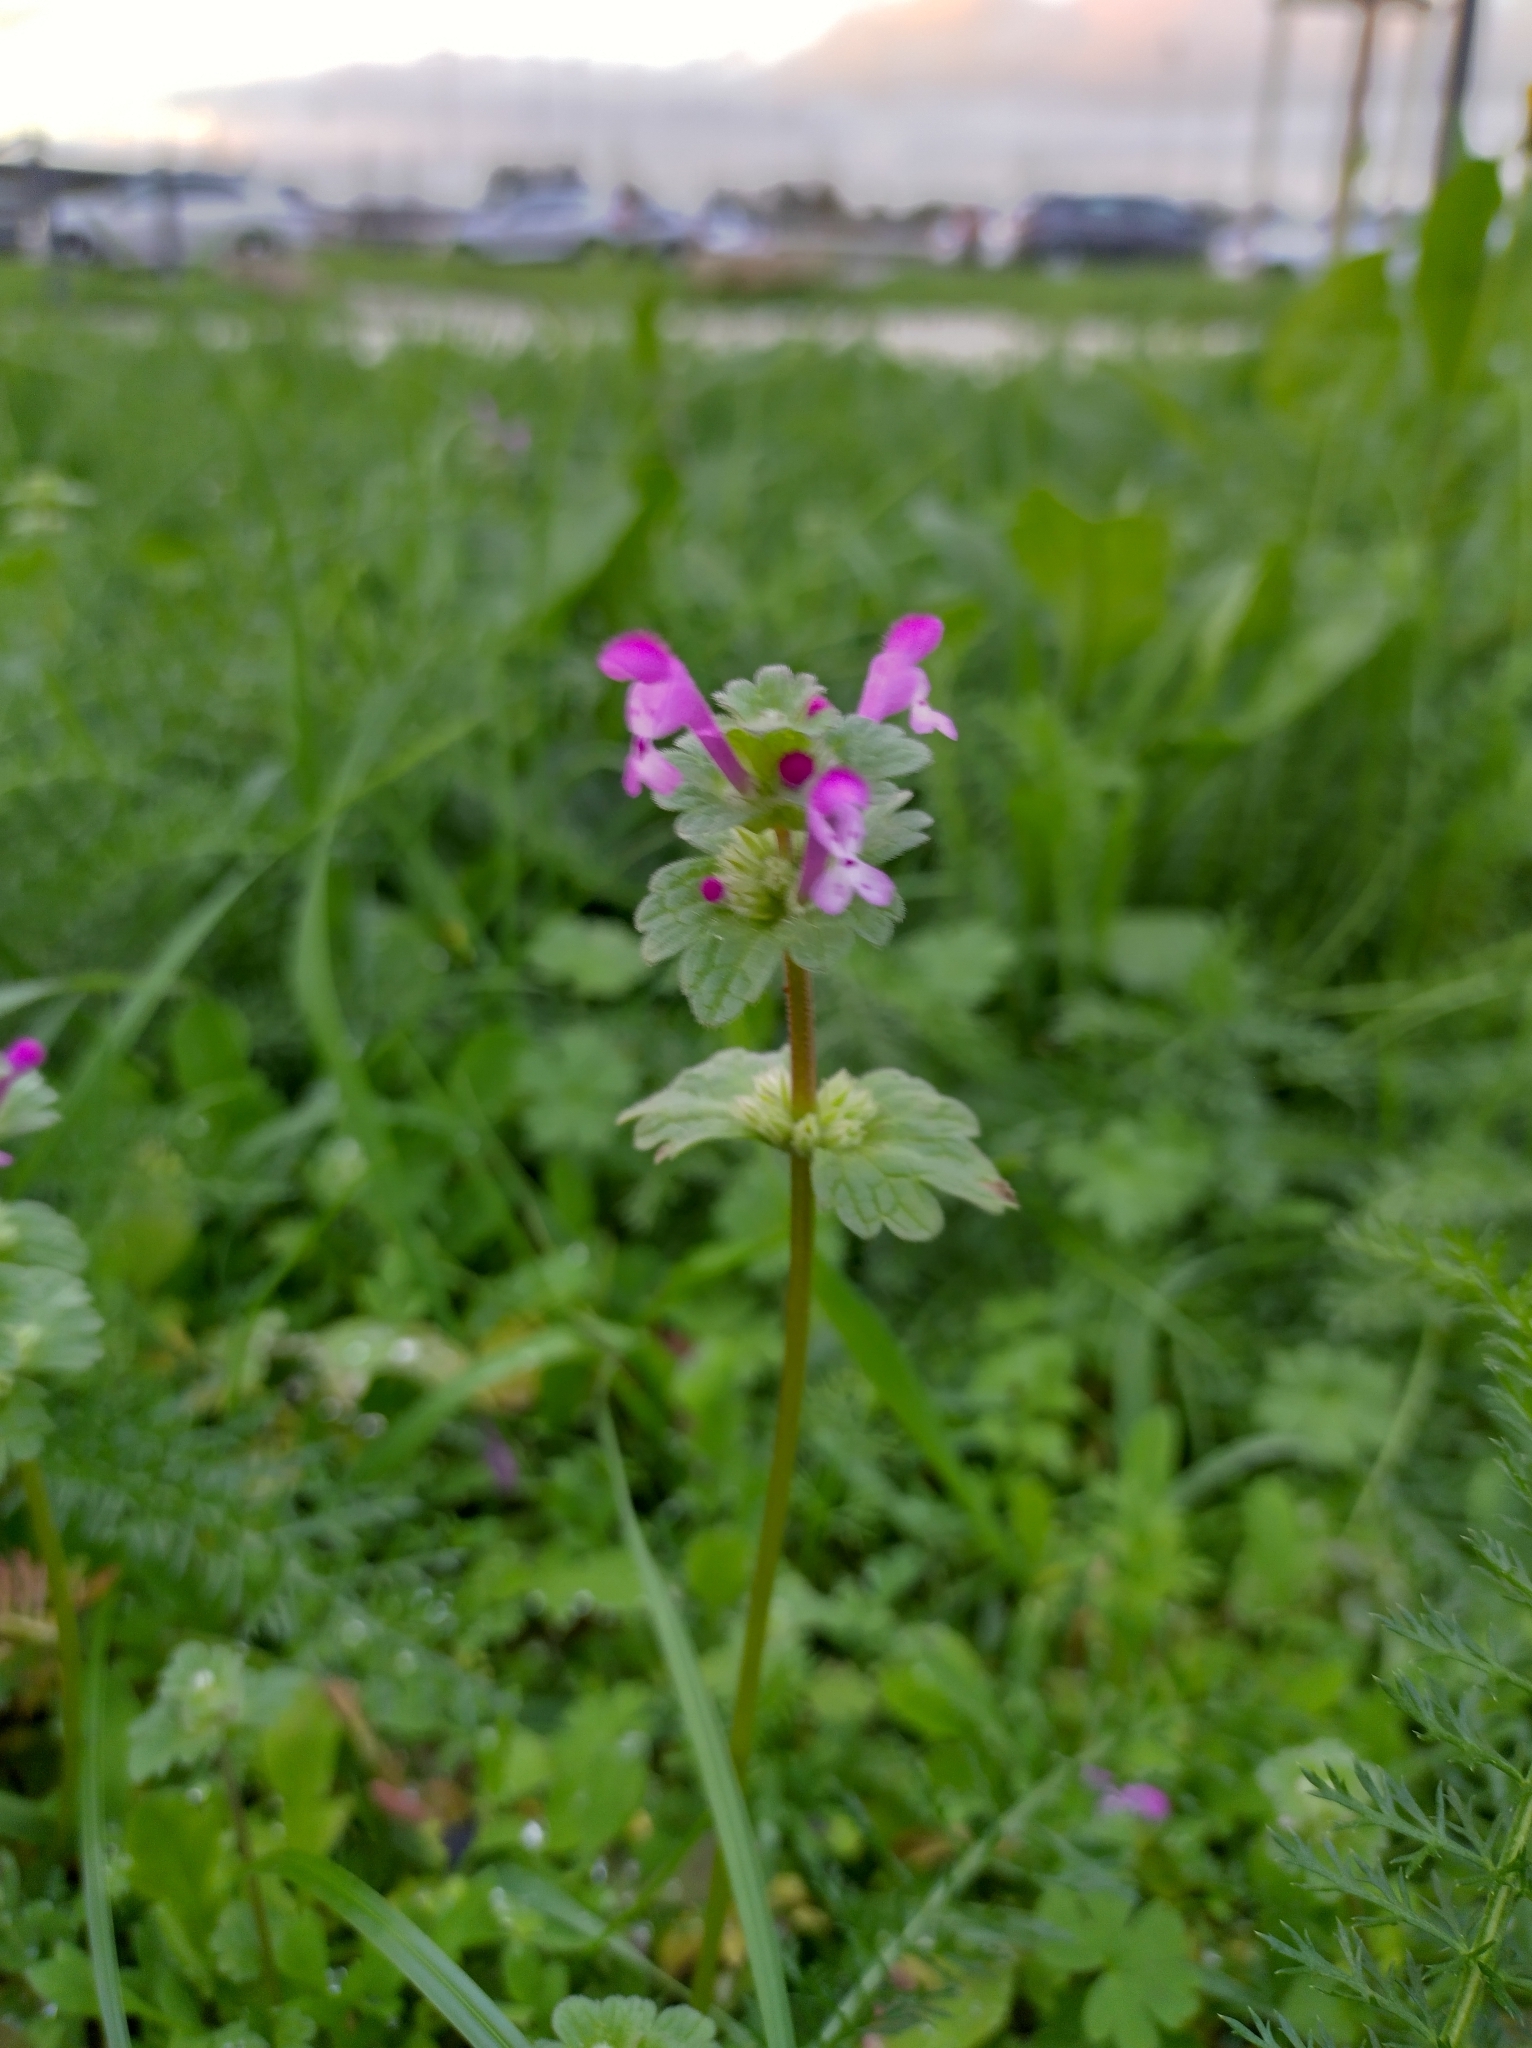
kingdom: Plantae
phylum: Tracheophyta
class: Magnoliopsida
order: Lamiales
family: Lamiaceae
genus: Lamium
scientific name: Lamium amplexicaule
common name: Henbit dead-nettle
